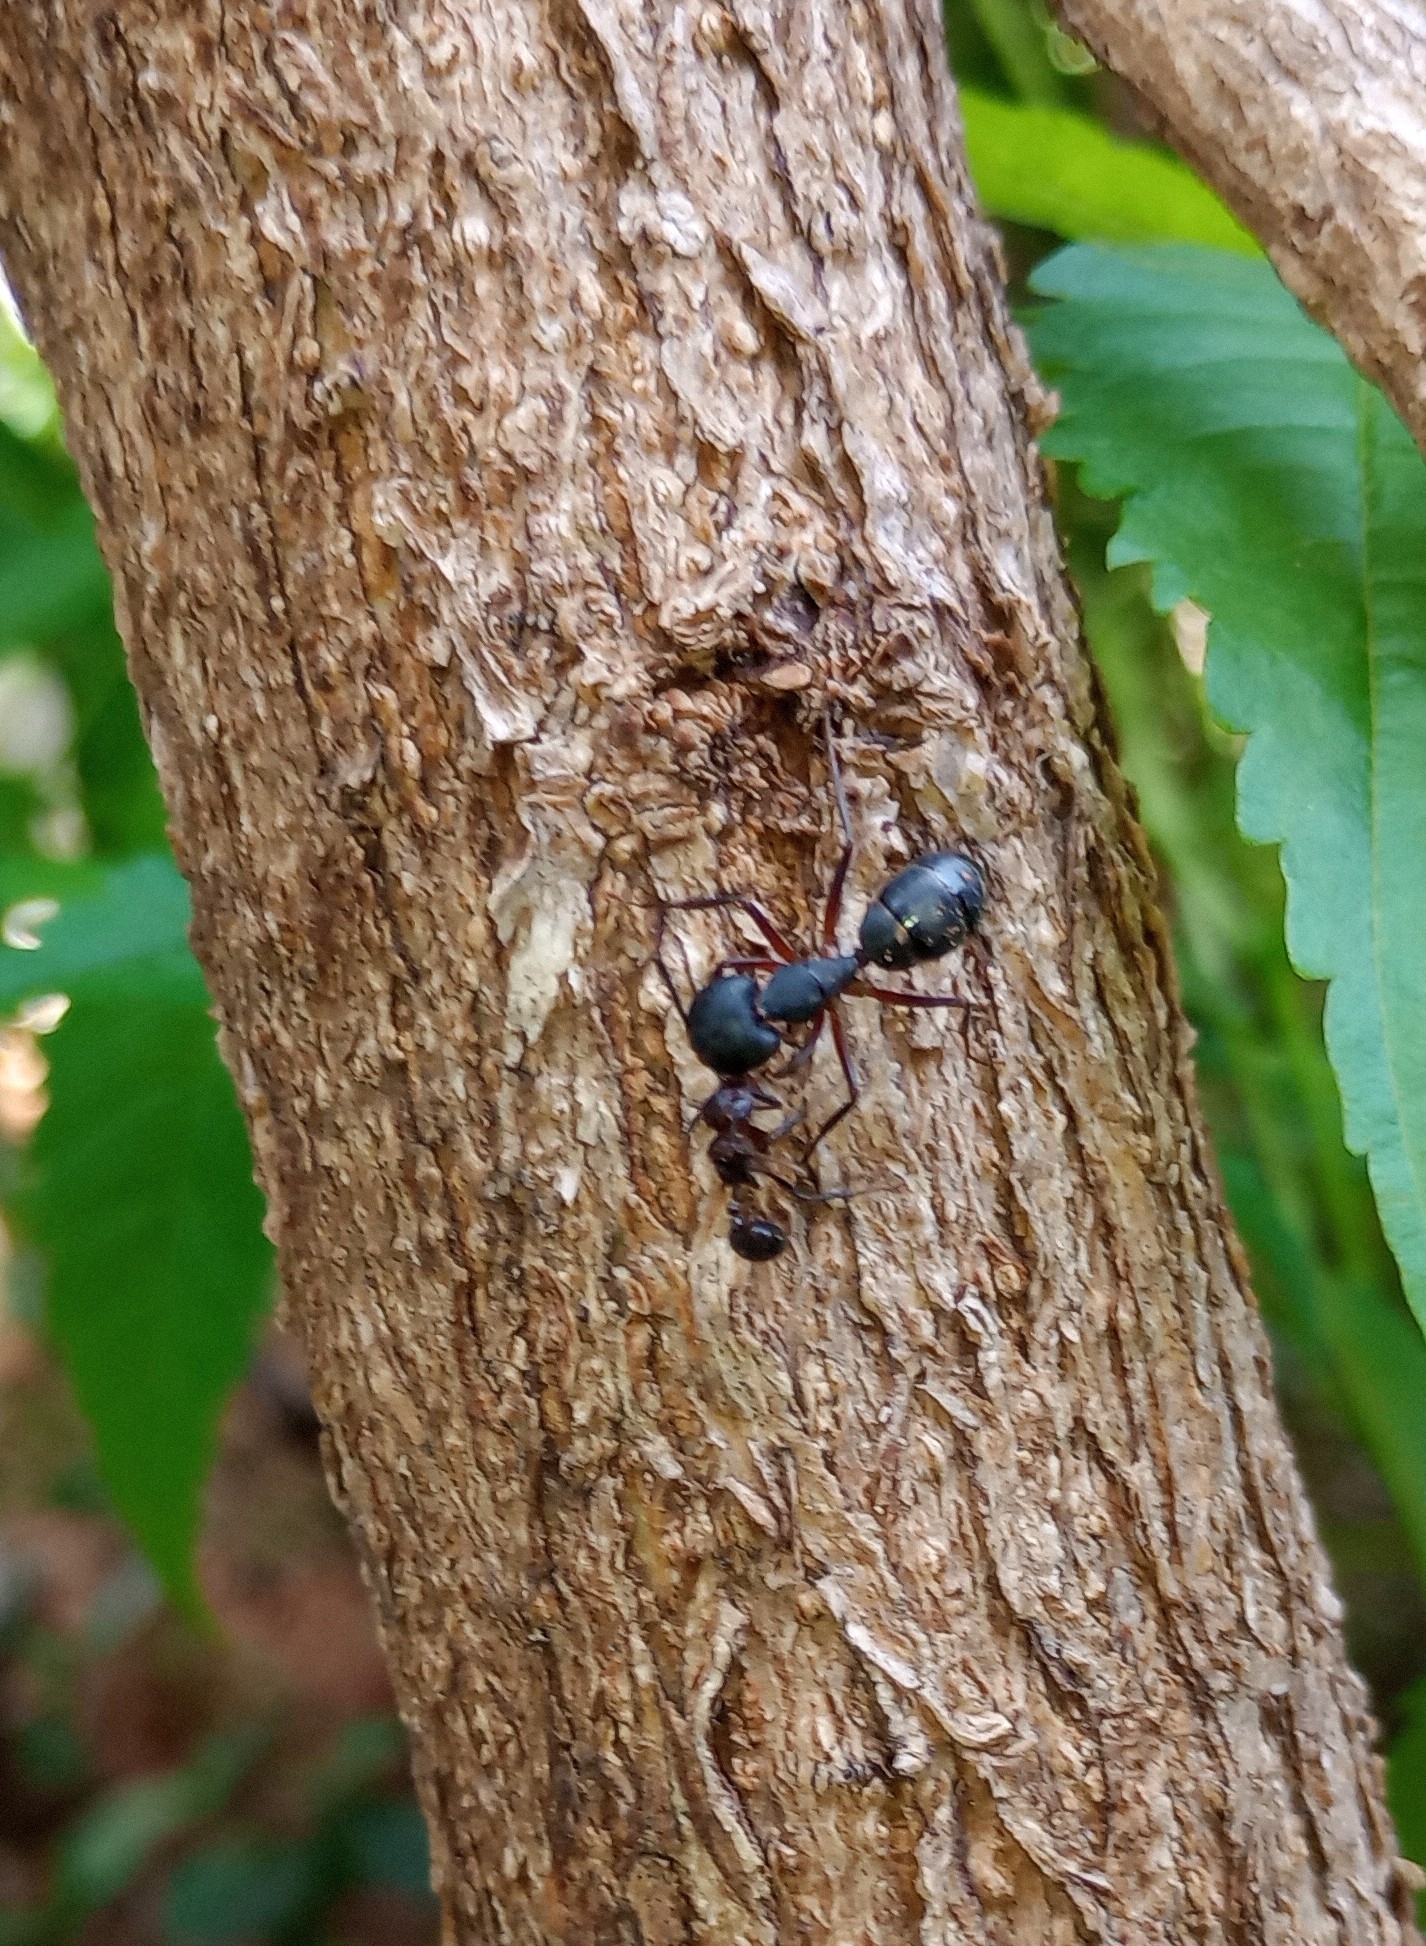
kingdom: Animalia
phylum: Arthropoda
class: Insecta
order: Hymenoptera
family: Formicidae
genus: Camponotus
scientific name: Camponotus compressus
